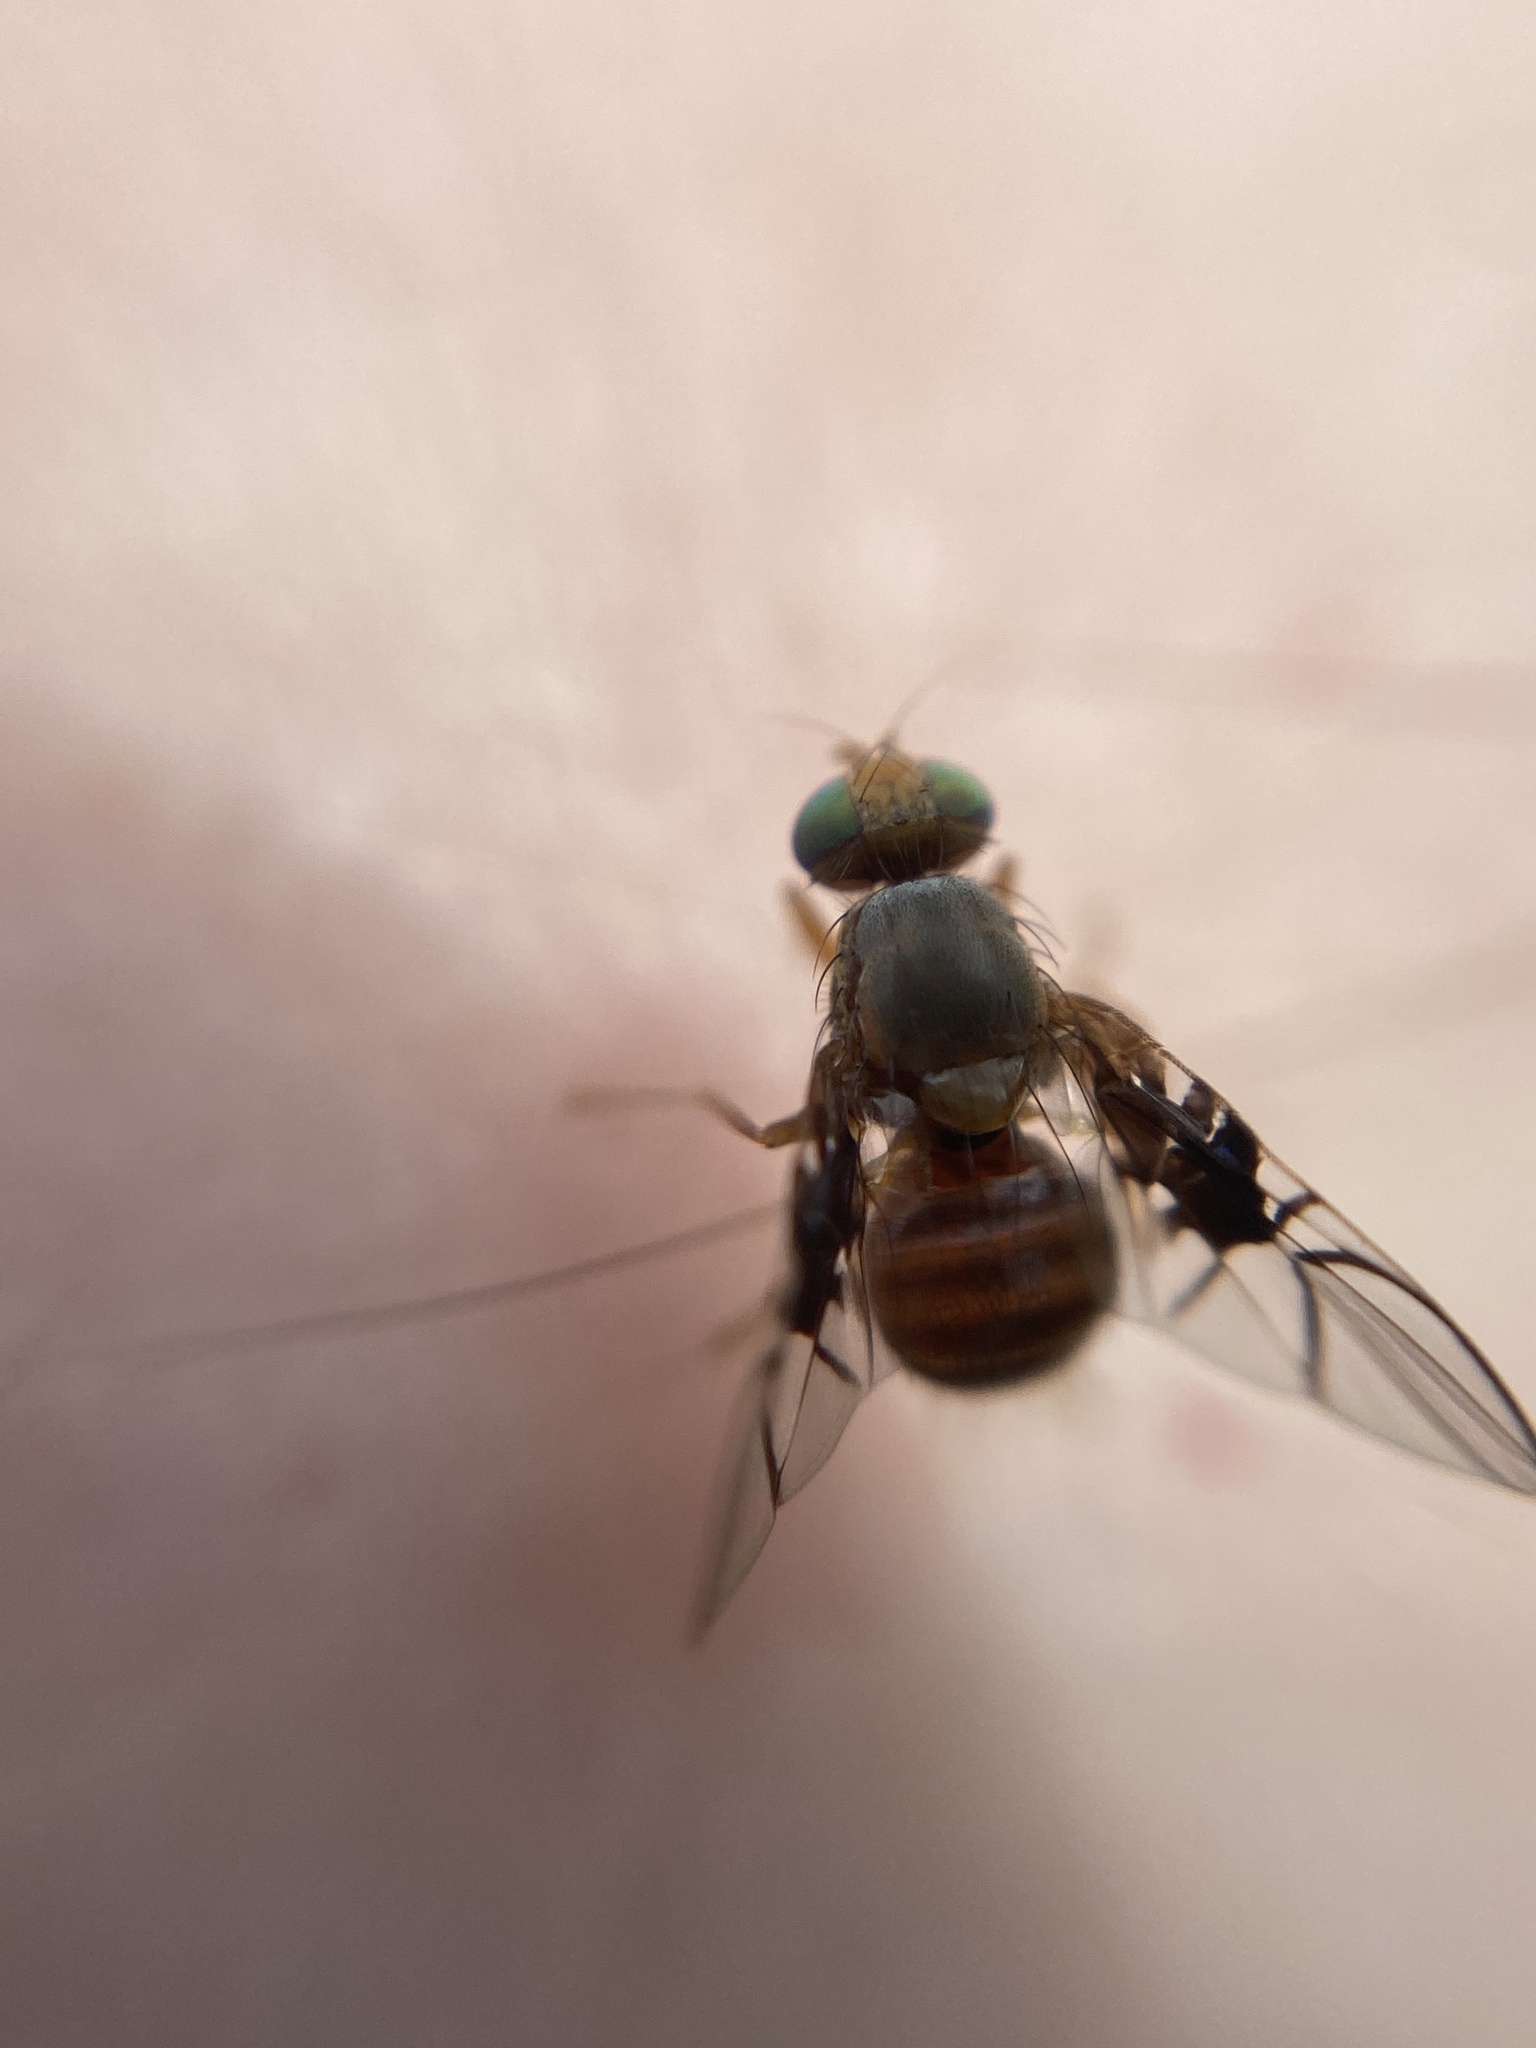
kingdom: Animalia
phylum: Arthropoda
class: Insecta
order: Diptera
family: Tephritidae
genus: Anomoia
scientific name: Anomoia purmunda
